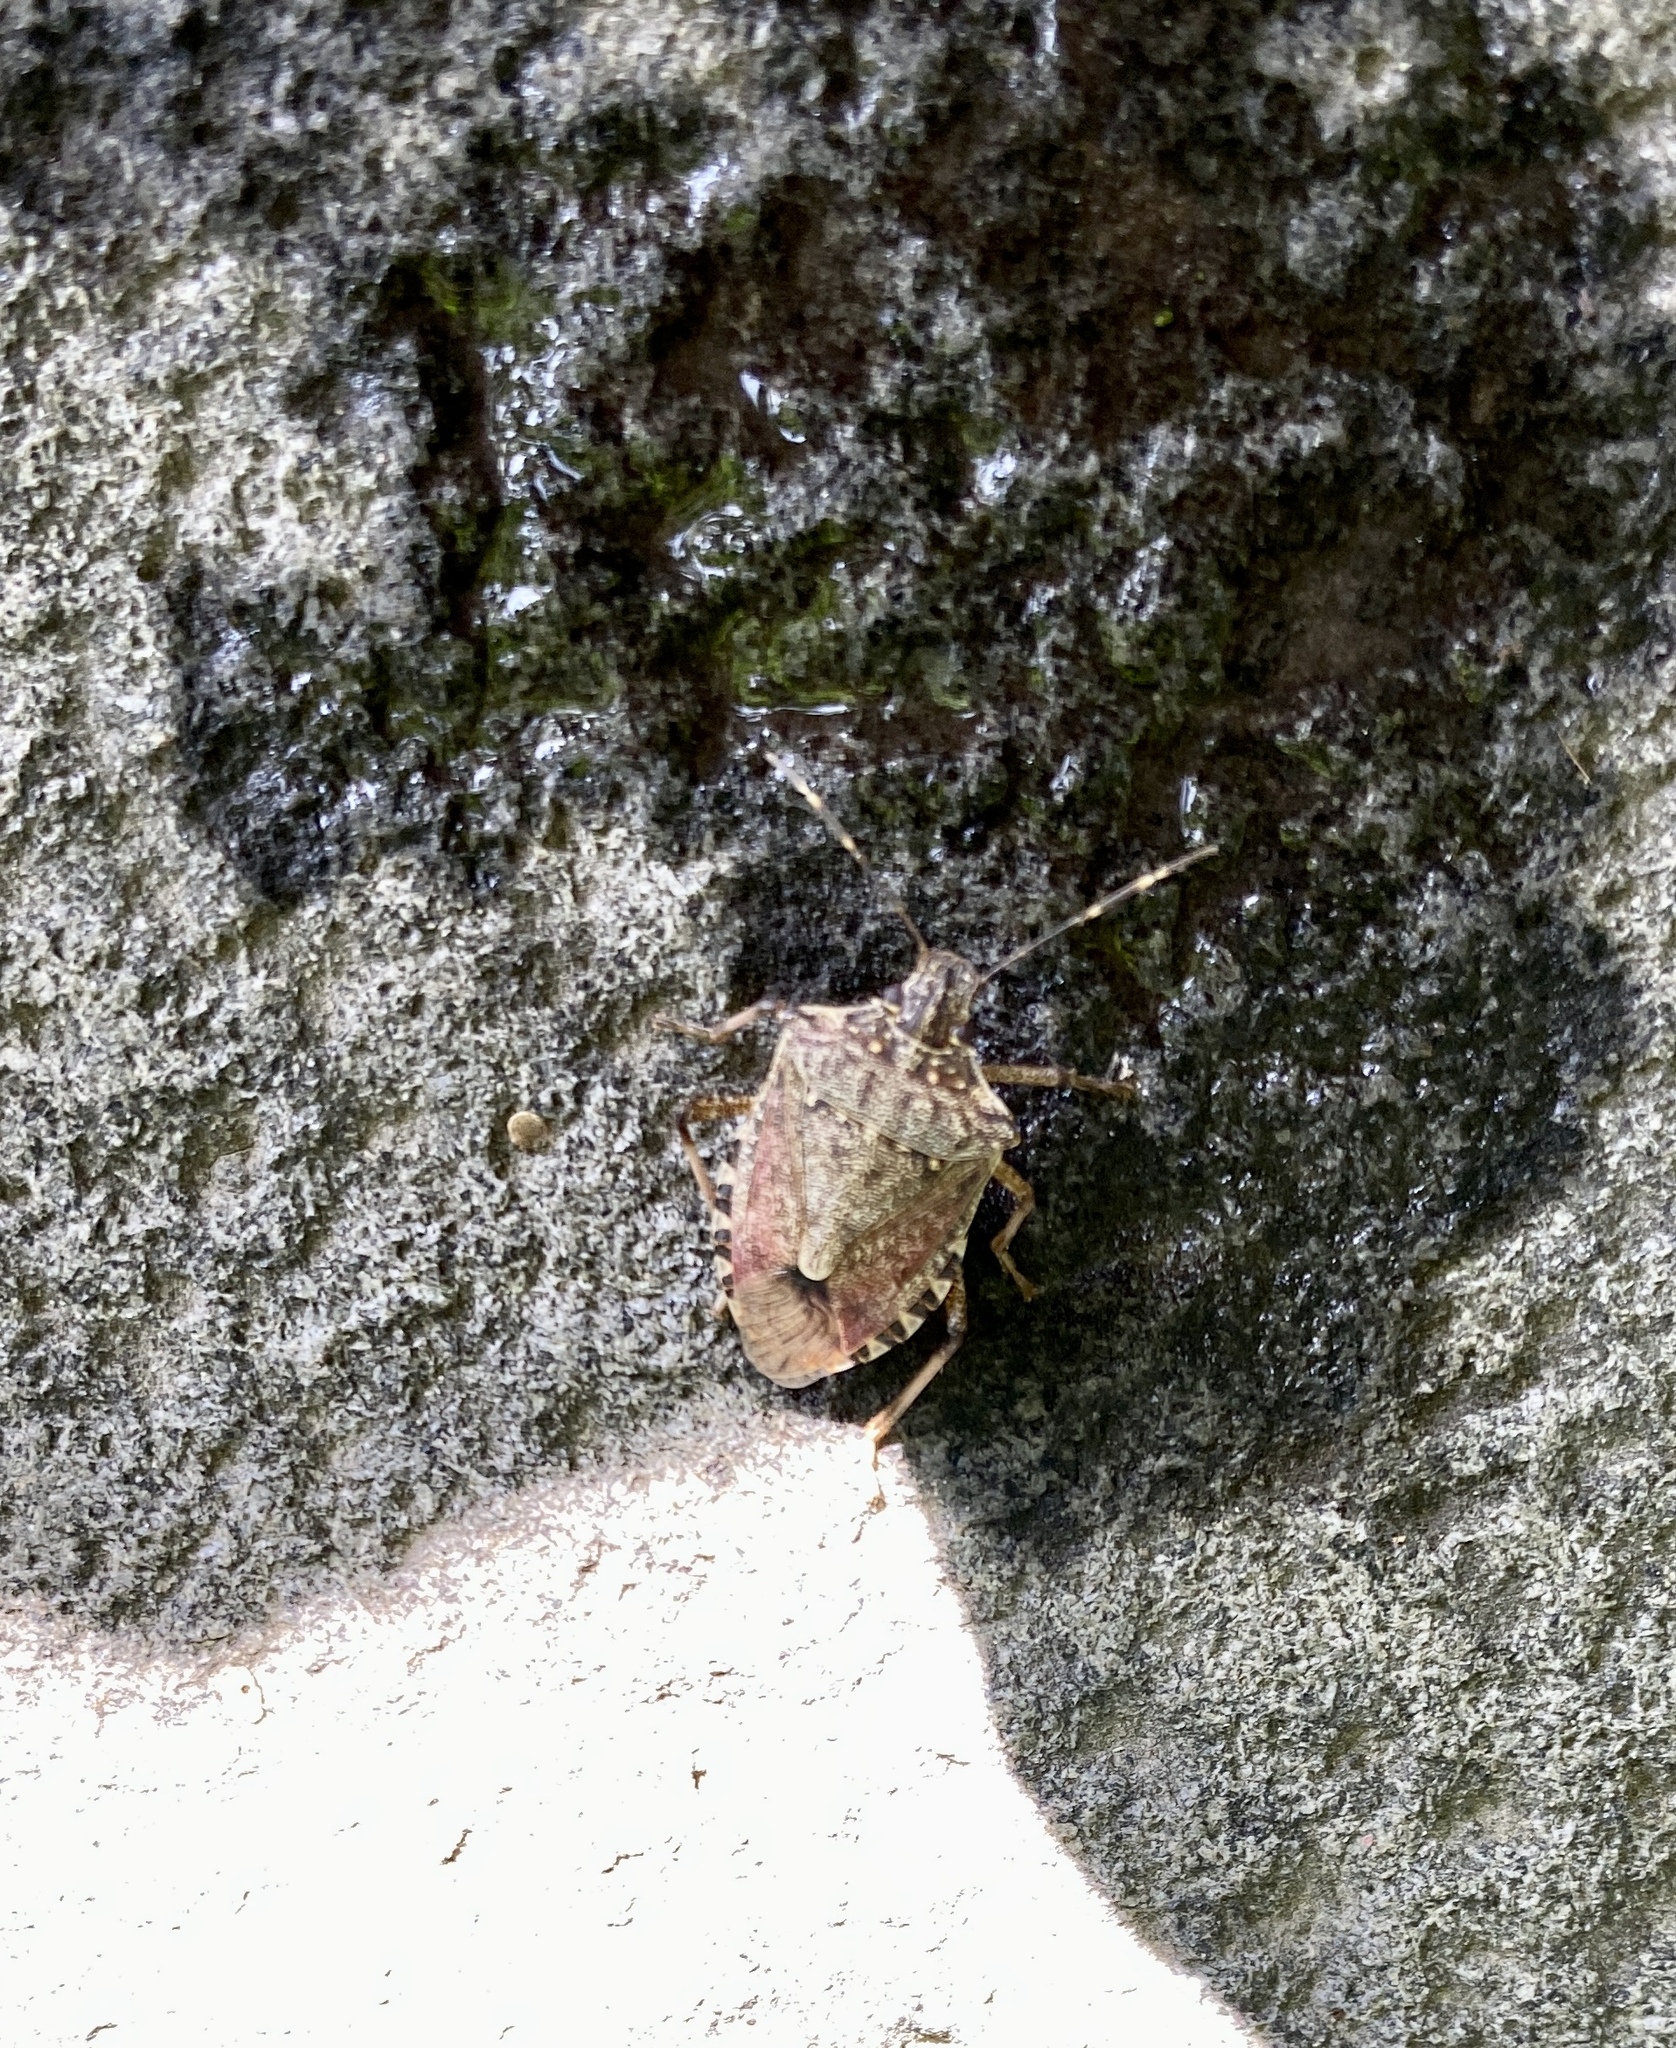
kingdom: Animalia
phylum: Arthropoda
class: Insecta
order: Hemiptera
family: Pentatomidae
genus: Halyomorpha
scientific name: Halyomorpha halys
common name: Brown marmorated stink bug
